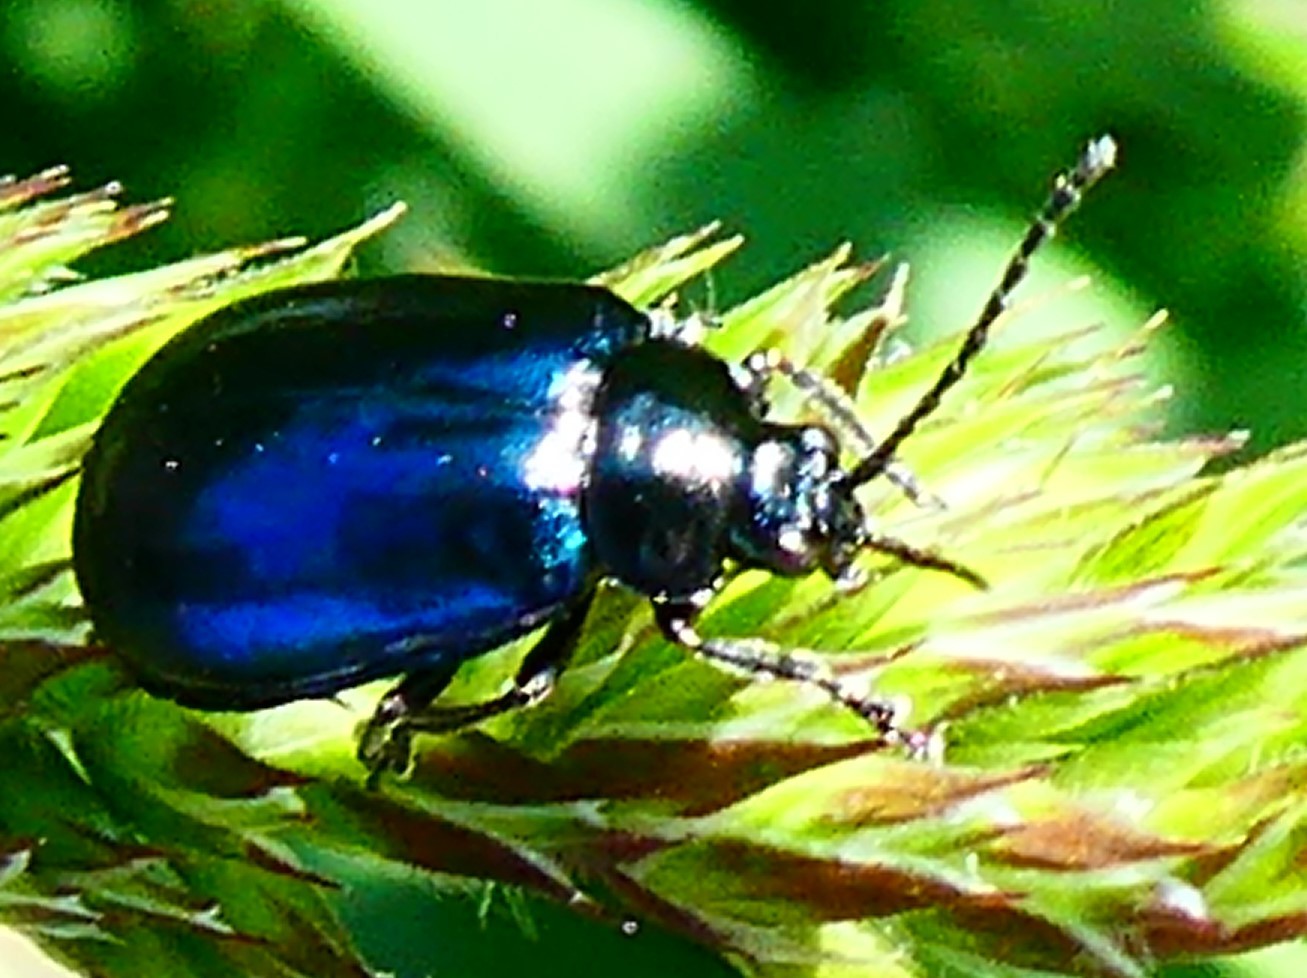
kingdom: Animalia
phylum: Arthropoda
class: Insecta
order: Coleoptera
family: Chrysomelidae
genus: Agelastica
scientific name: Agelastica alni
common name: Alder leaf beetle
